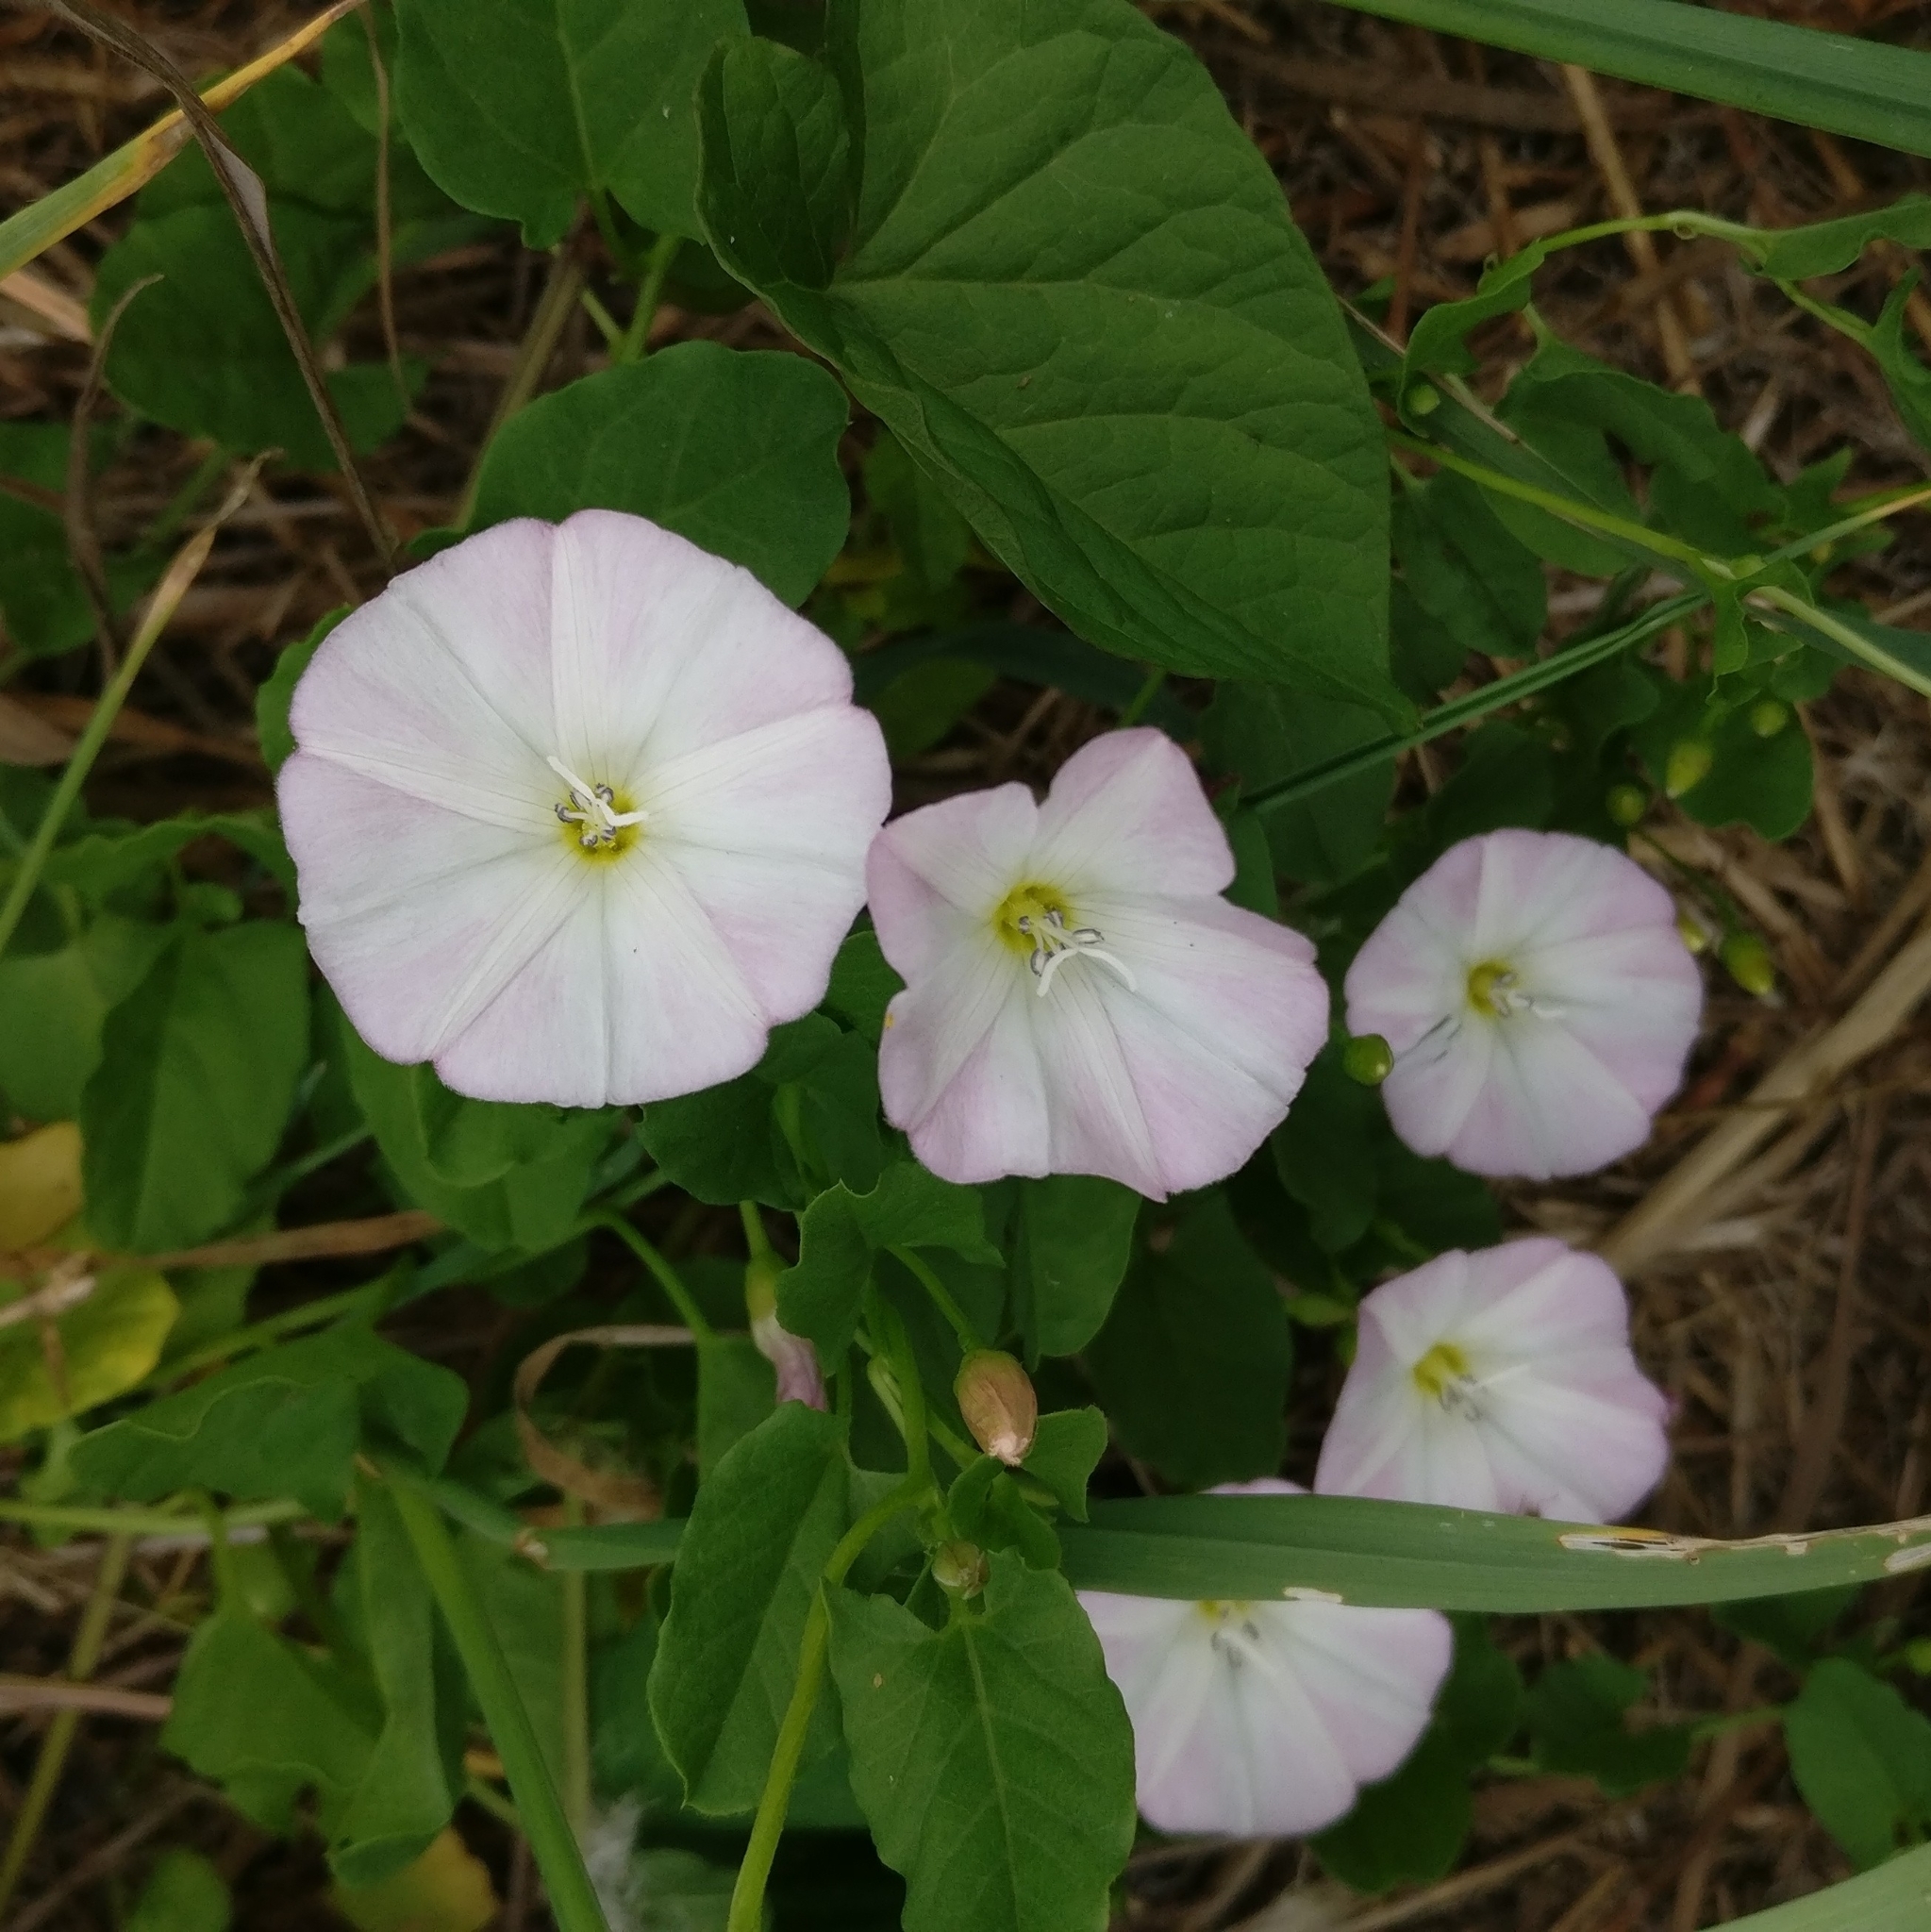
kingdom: Plantae
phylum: Tracheophyta
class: Magnoliopsida
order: Solanales
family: Convolvulaceae
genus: Convolvulus
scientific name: Convolvulus arvensis
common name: Field bindweed
